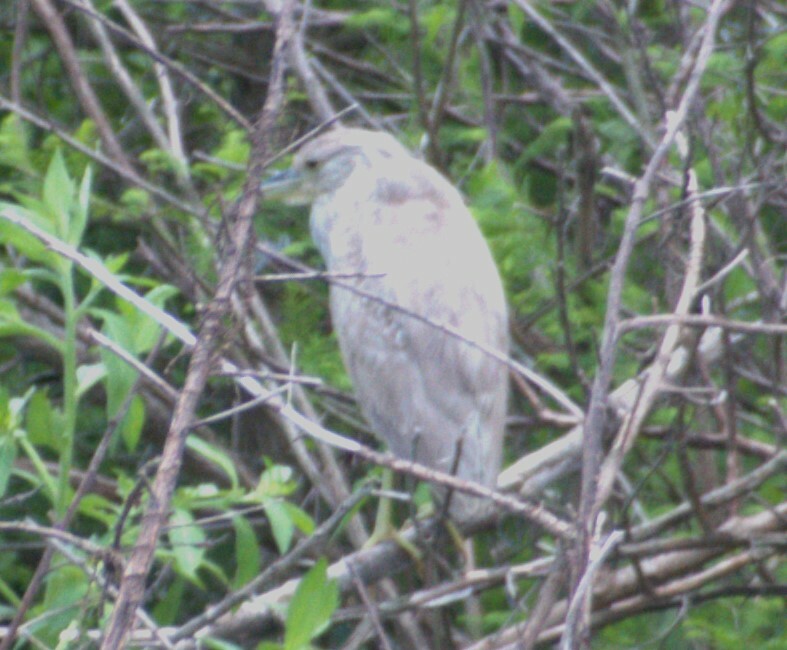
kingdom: Animalia
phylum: Chordata
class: Aves
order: Pelecaniformes
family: Ardeidae
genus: Nycticorax
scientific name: Nycticorax nycticorax
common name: Black-crowned night heron
